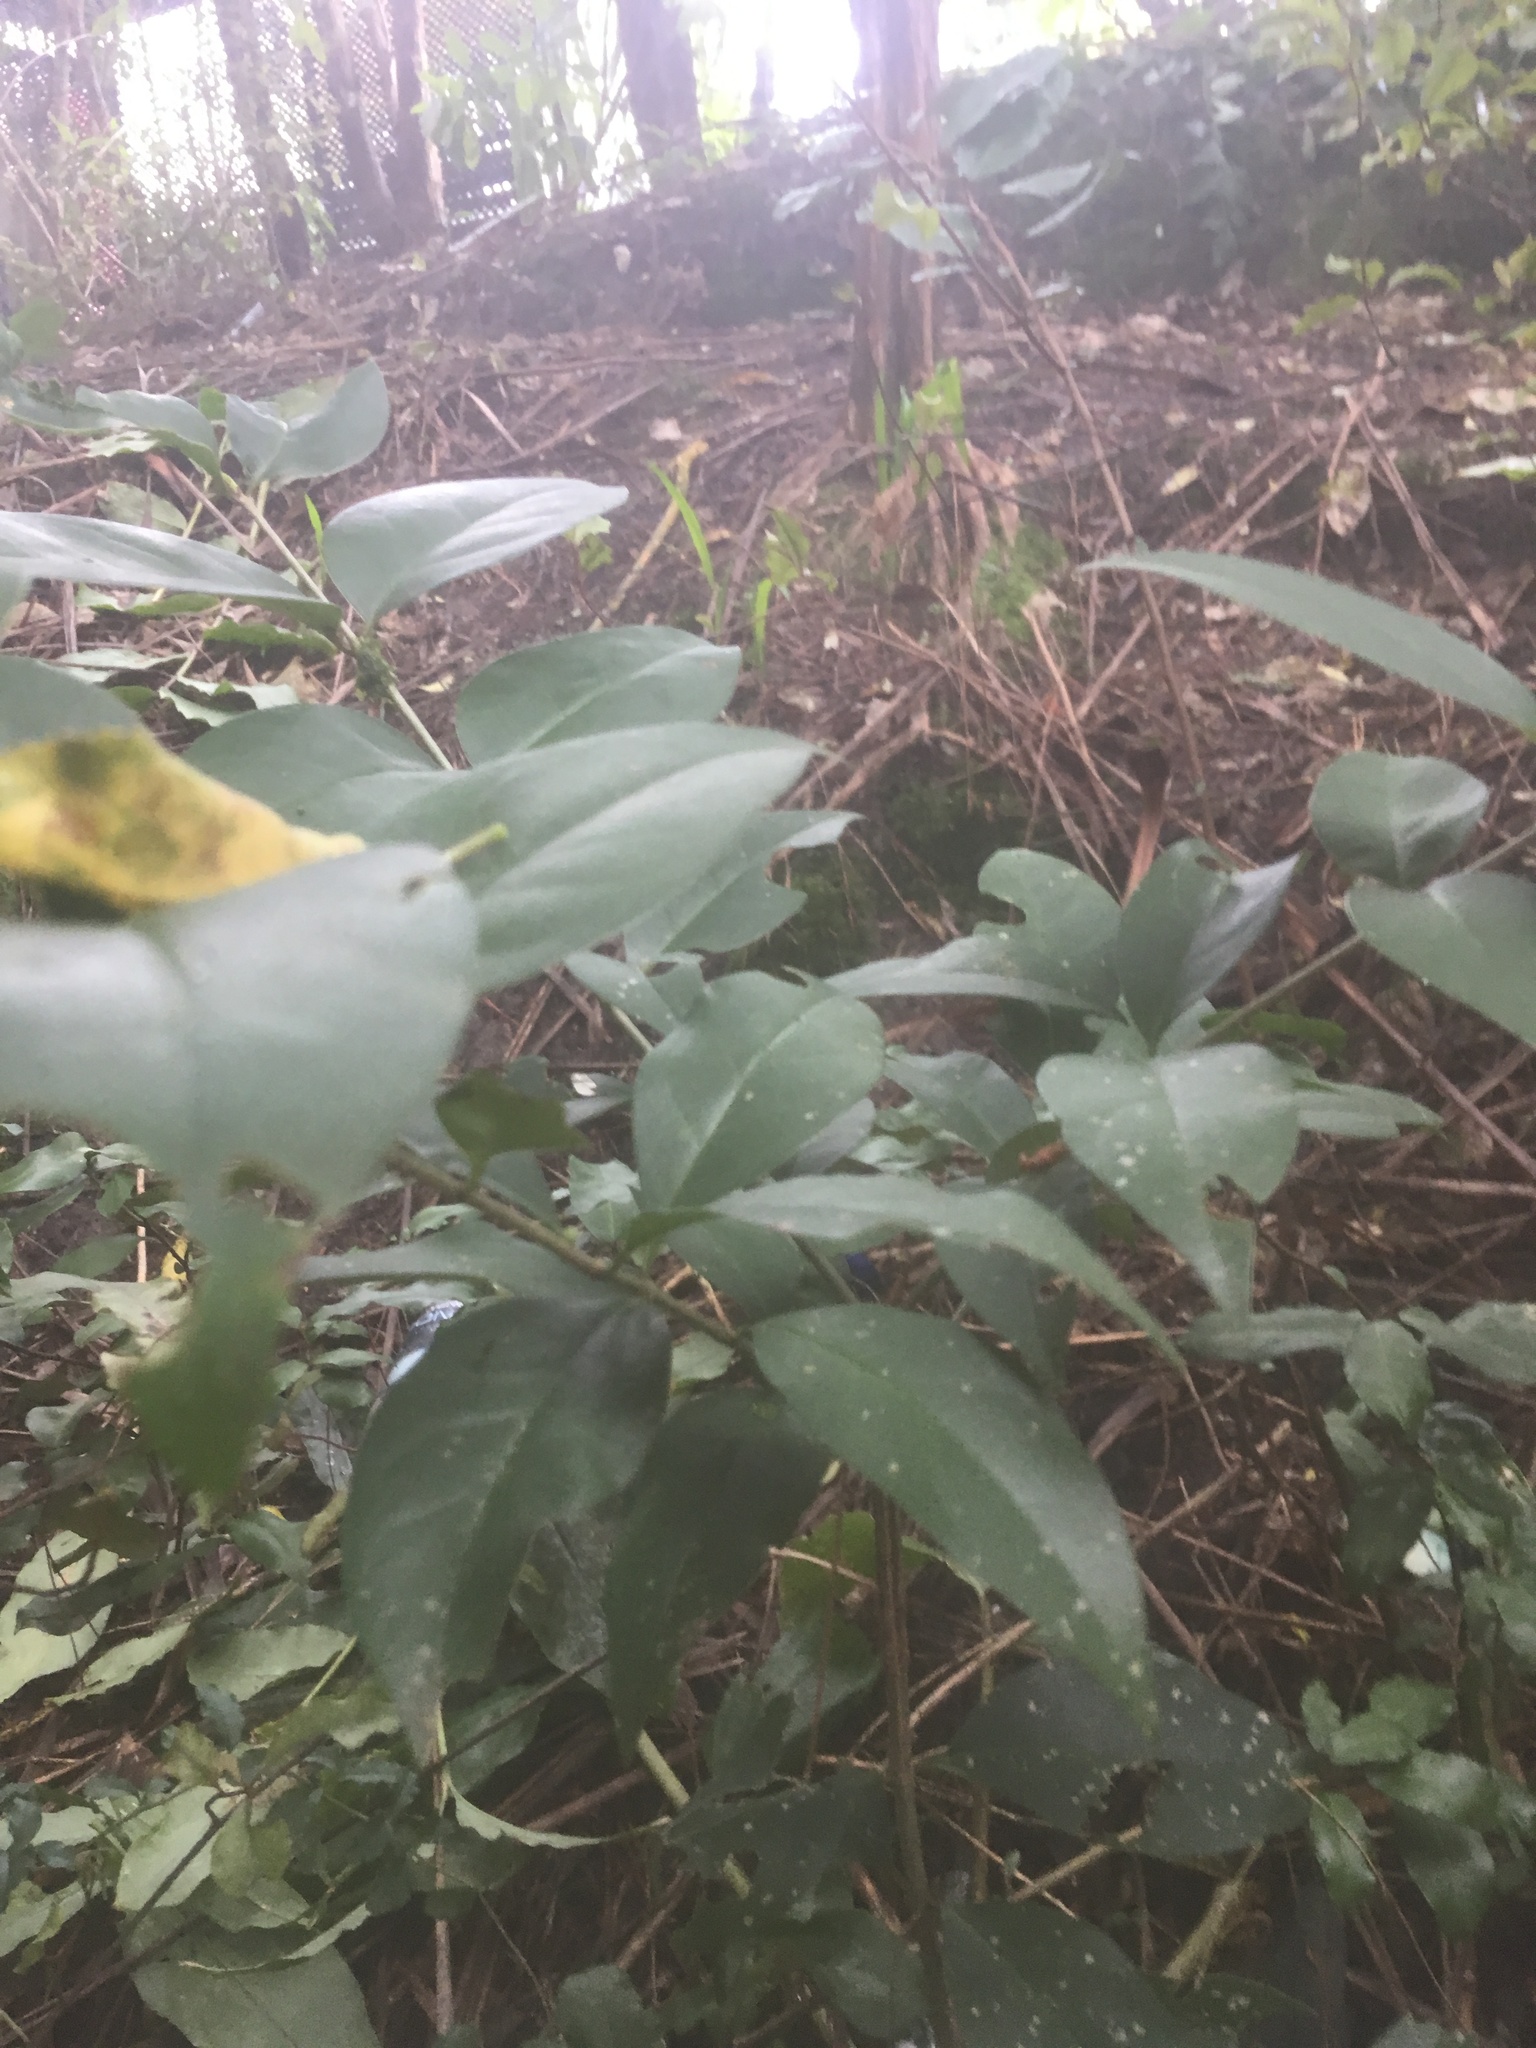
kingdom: Plantae
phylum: Tracheophyta
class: Magnoliopsida
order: Lamiales
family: Oleaceae
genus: Ligustrum
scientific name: Ligustrum lucidum
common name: Glossy privet
